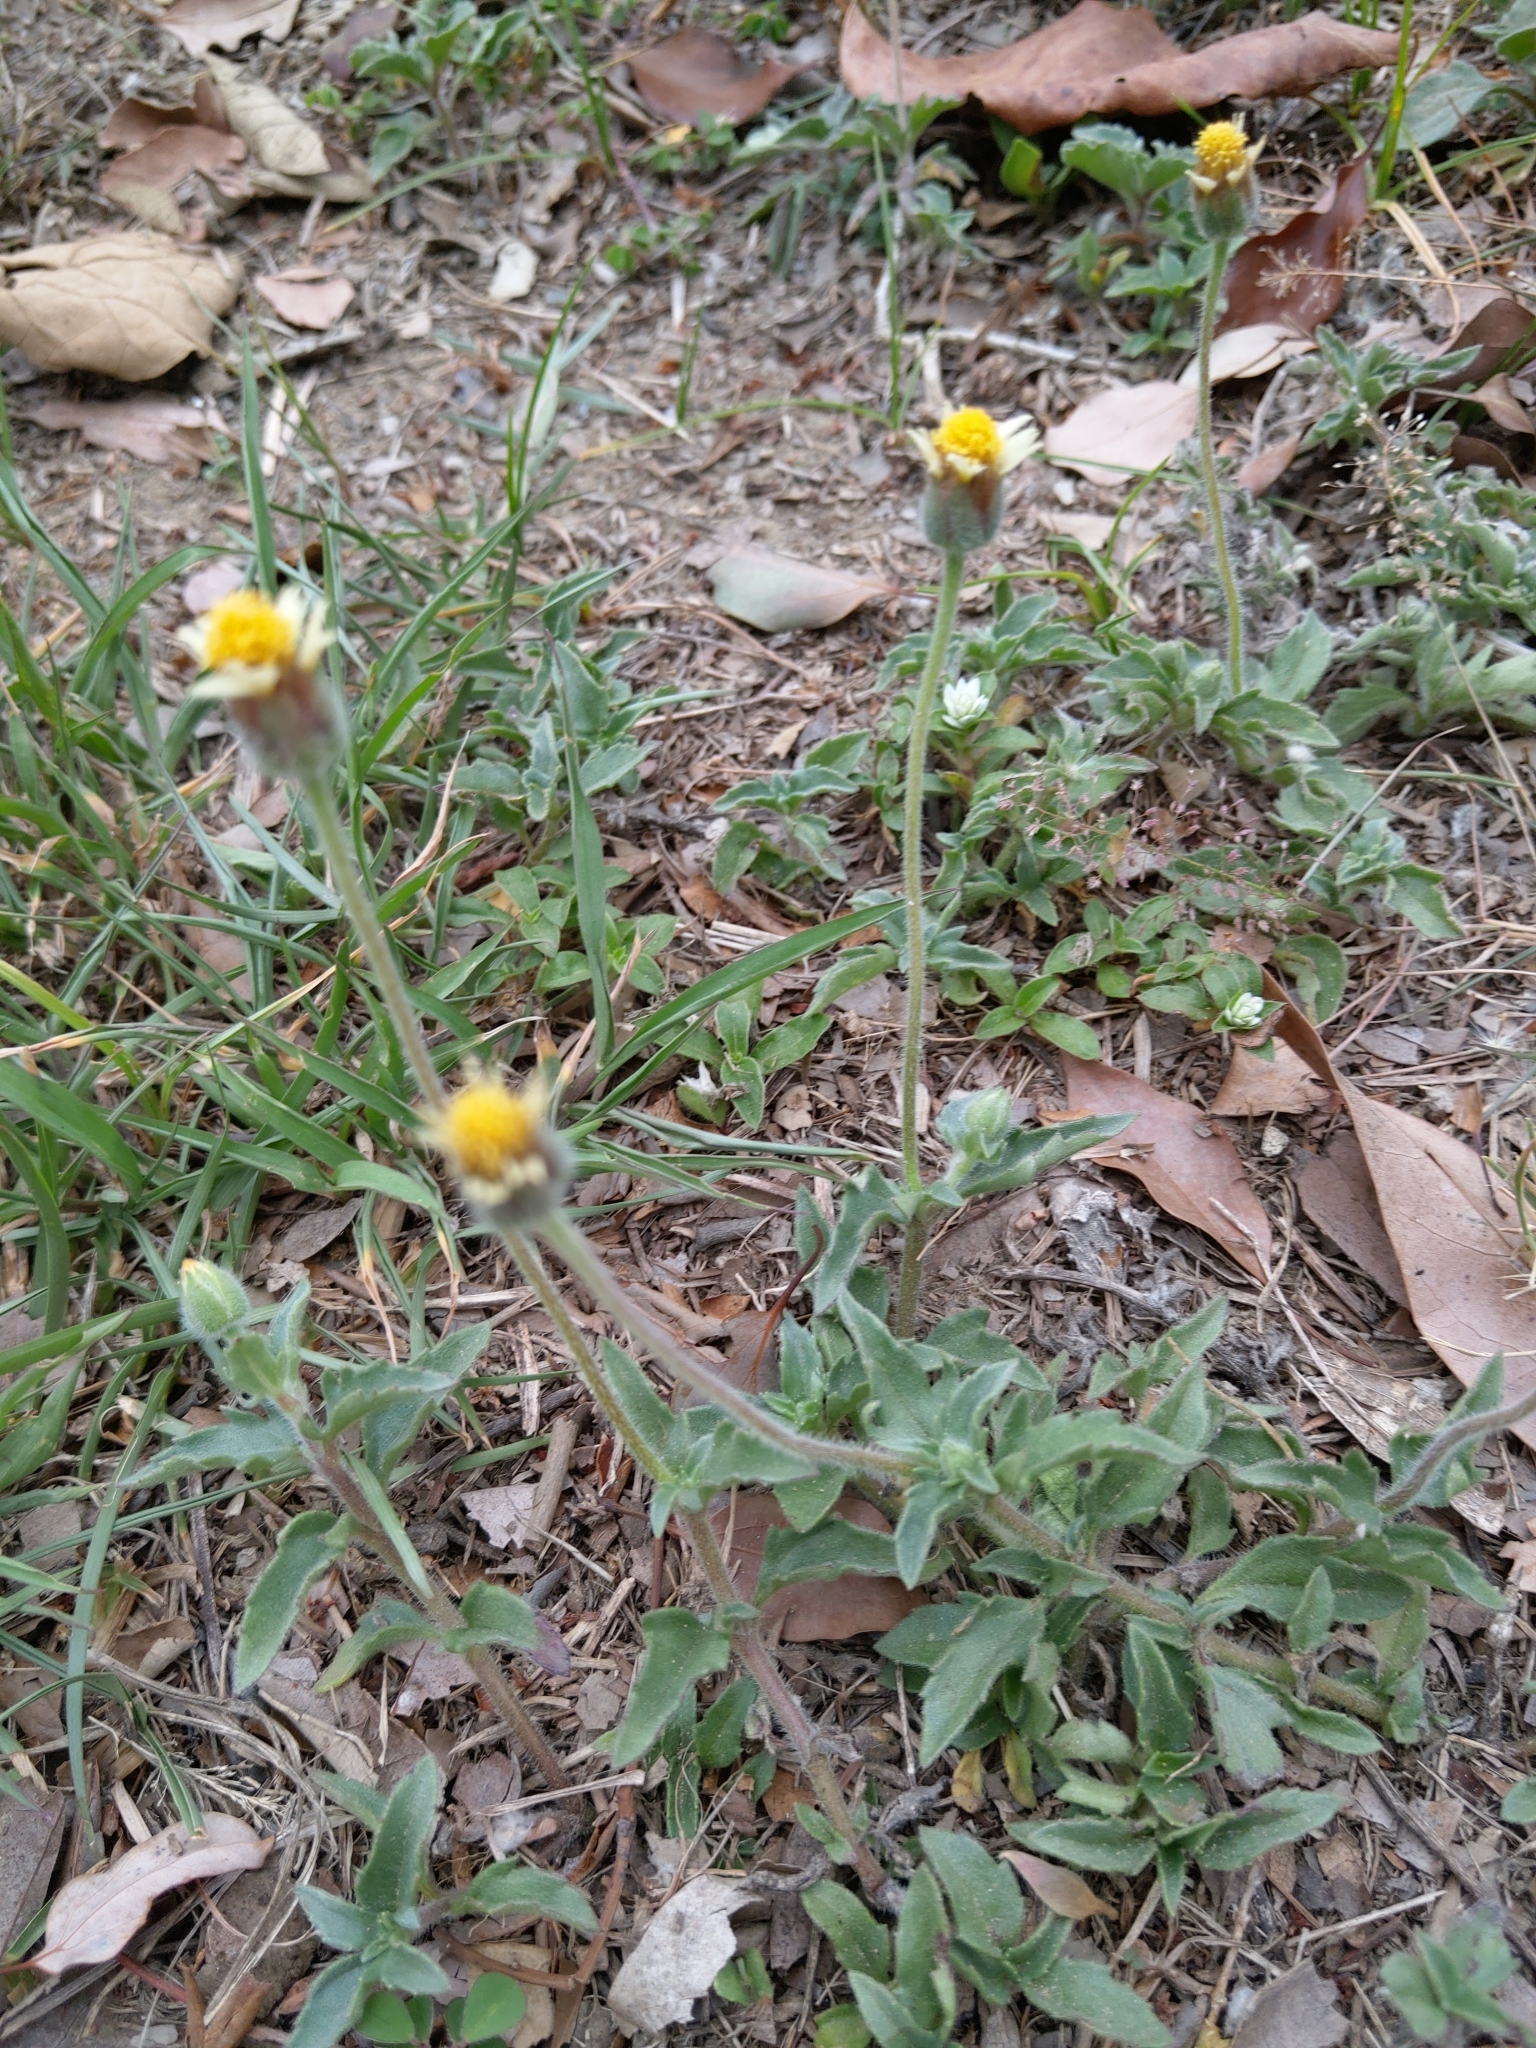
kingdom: Plantae
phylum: Tracheophyta
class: Magnoliopsida
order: Asterales
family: Asteraceae
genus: Tridax
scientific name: Tridax procumbens
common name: Coatbuttons
